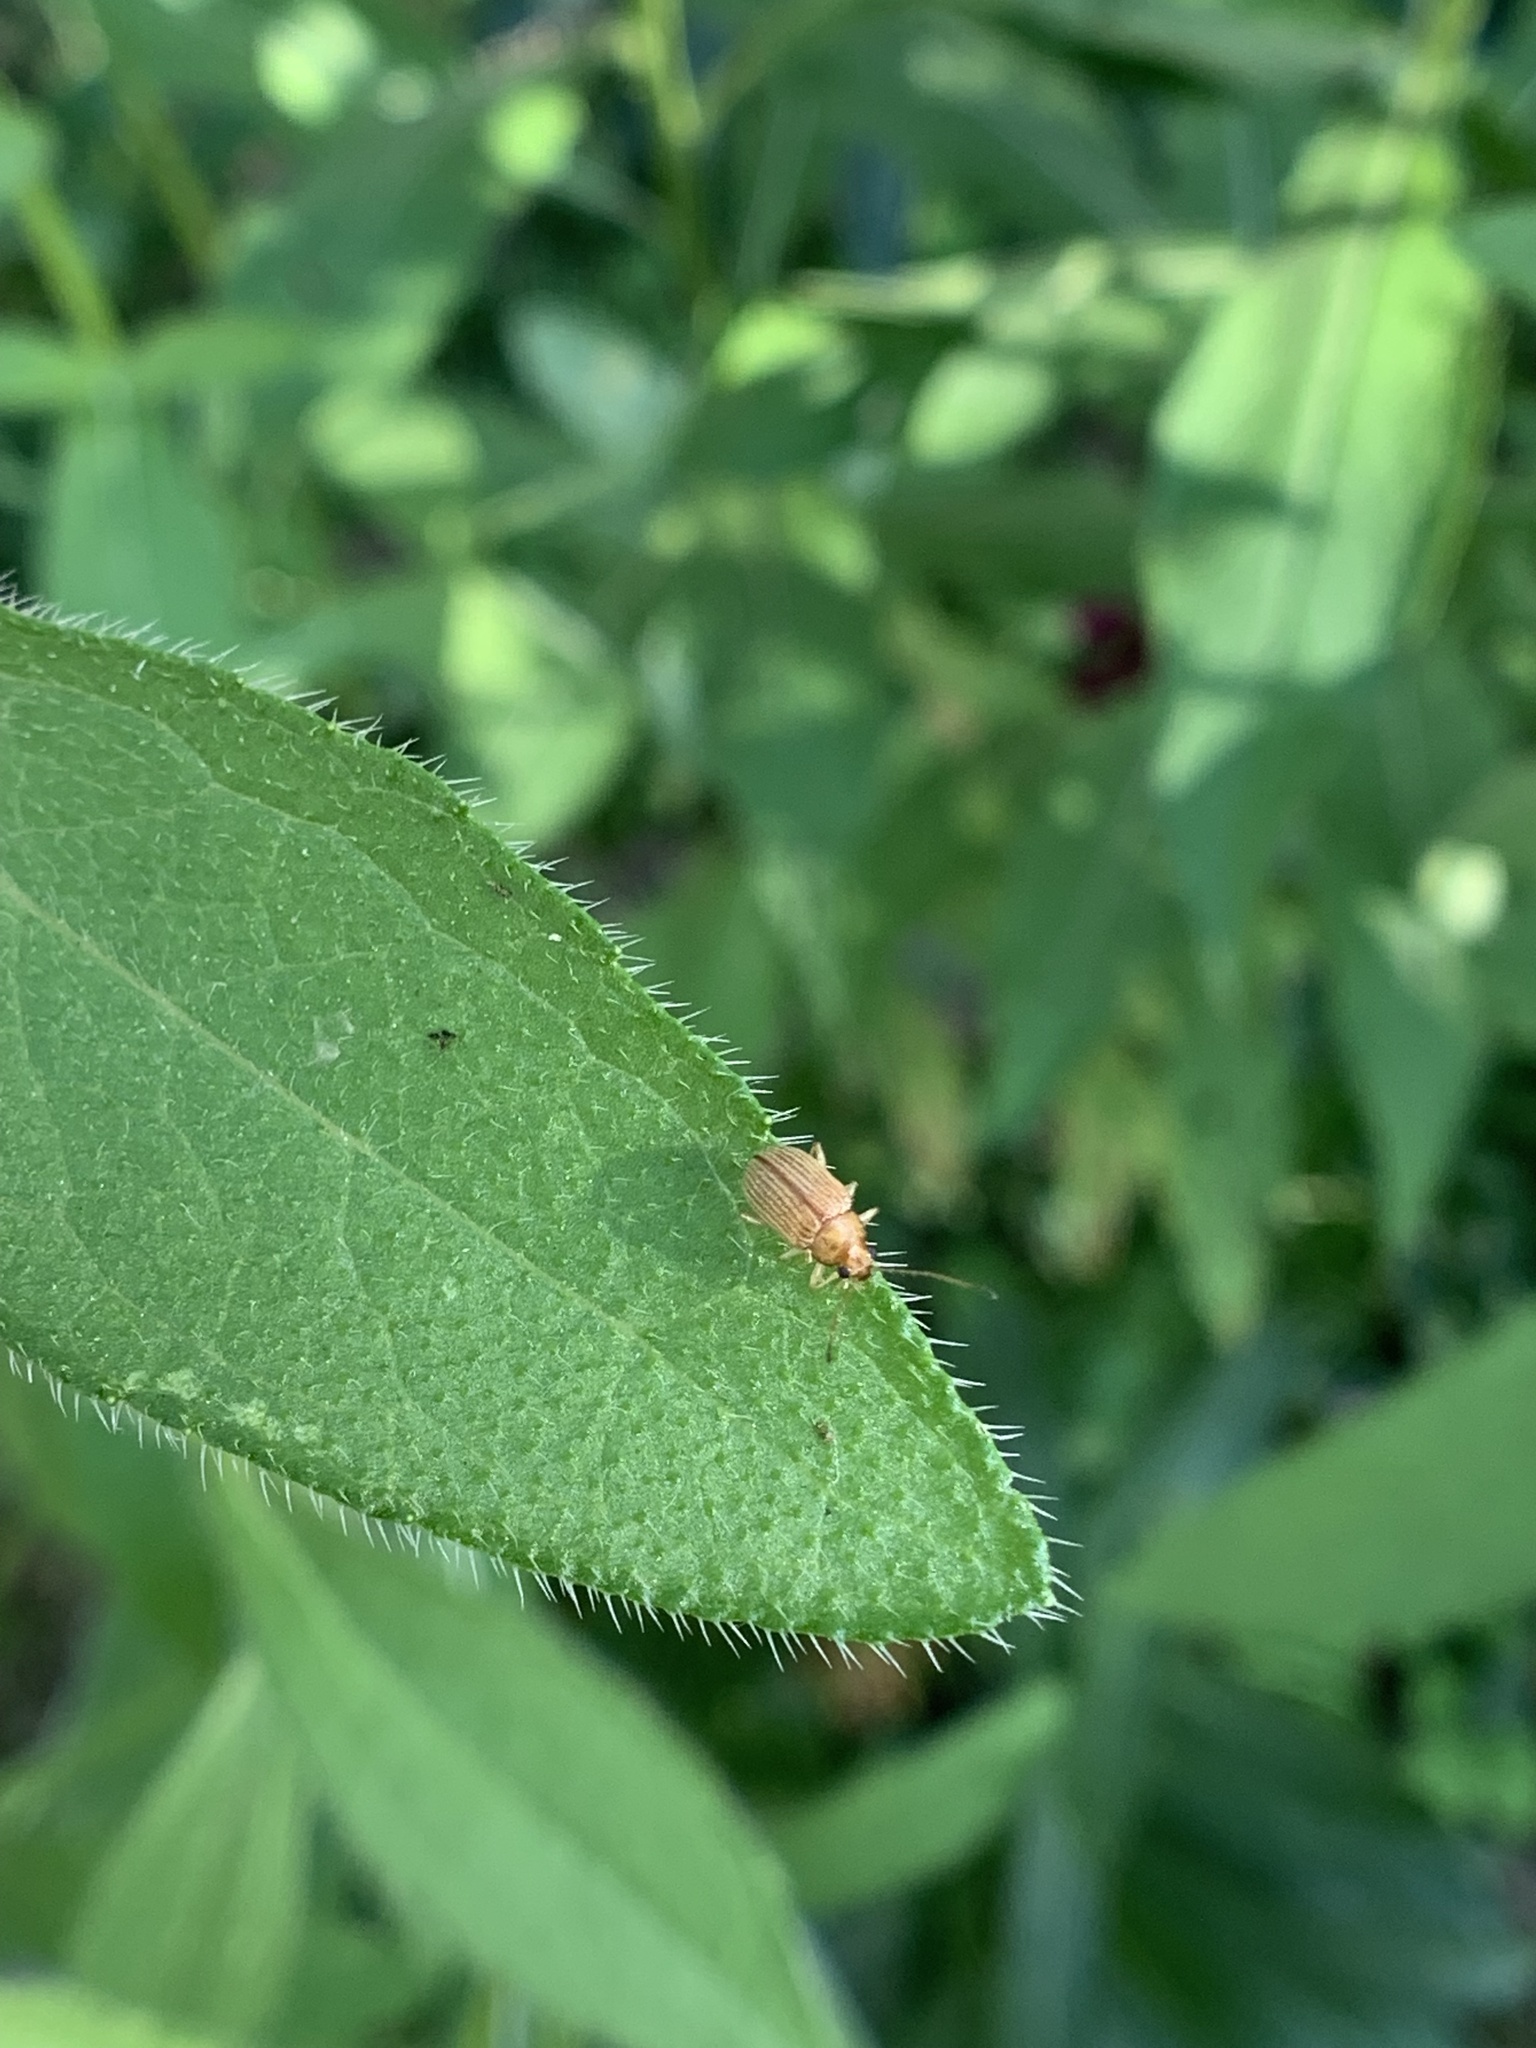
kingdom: Animalia
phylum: Arthropoda
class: Insecta
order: Coleoptera
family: Chrysomelidae
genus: Colaspis
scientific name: Colaspis brunnea
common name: Grape colaspis
